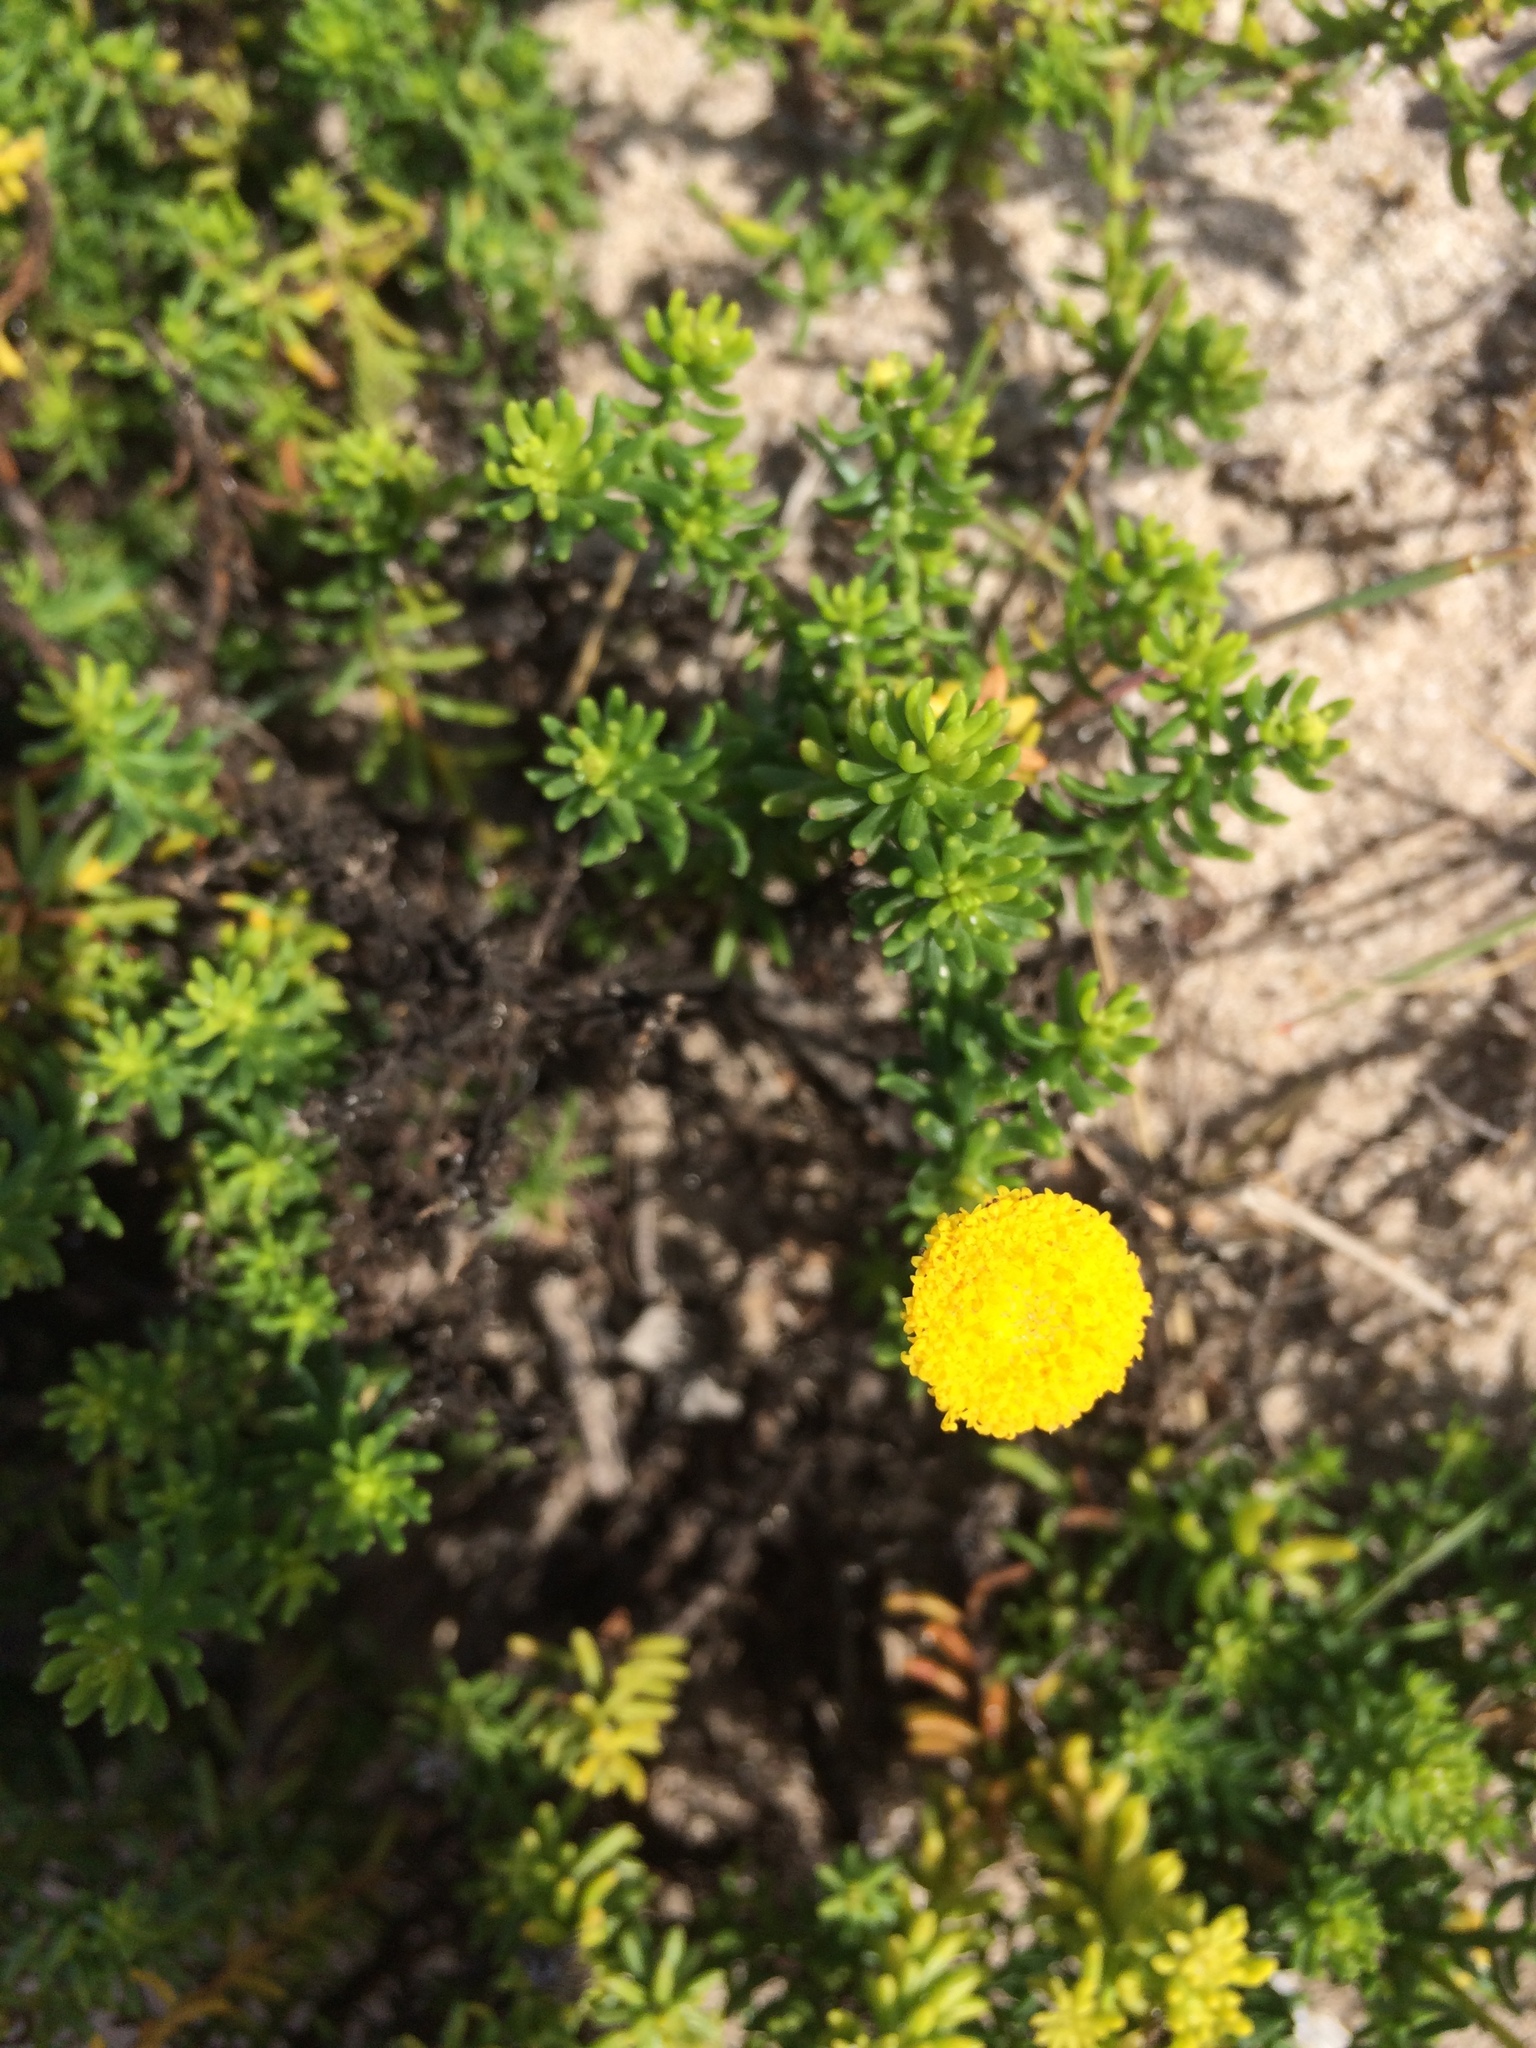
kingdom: Plantae
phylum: Tracheophyta
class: Magnoliopsida
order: Asterales
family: Asteraceae
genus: Chrysocoma
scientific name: Chrysocoma cernua
